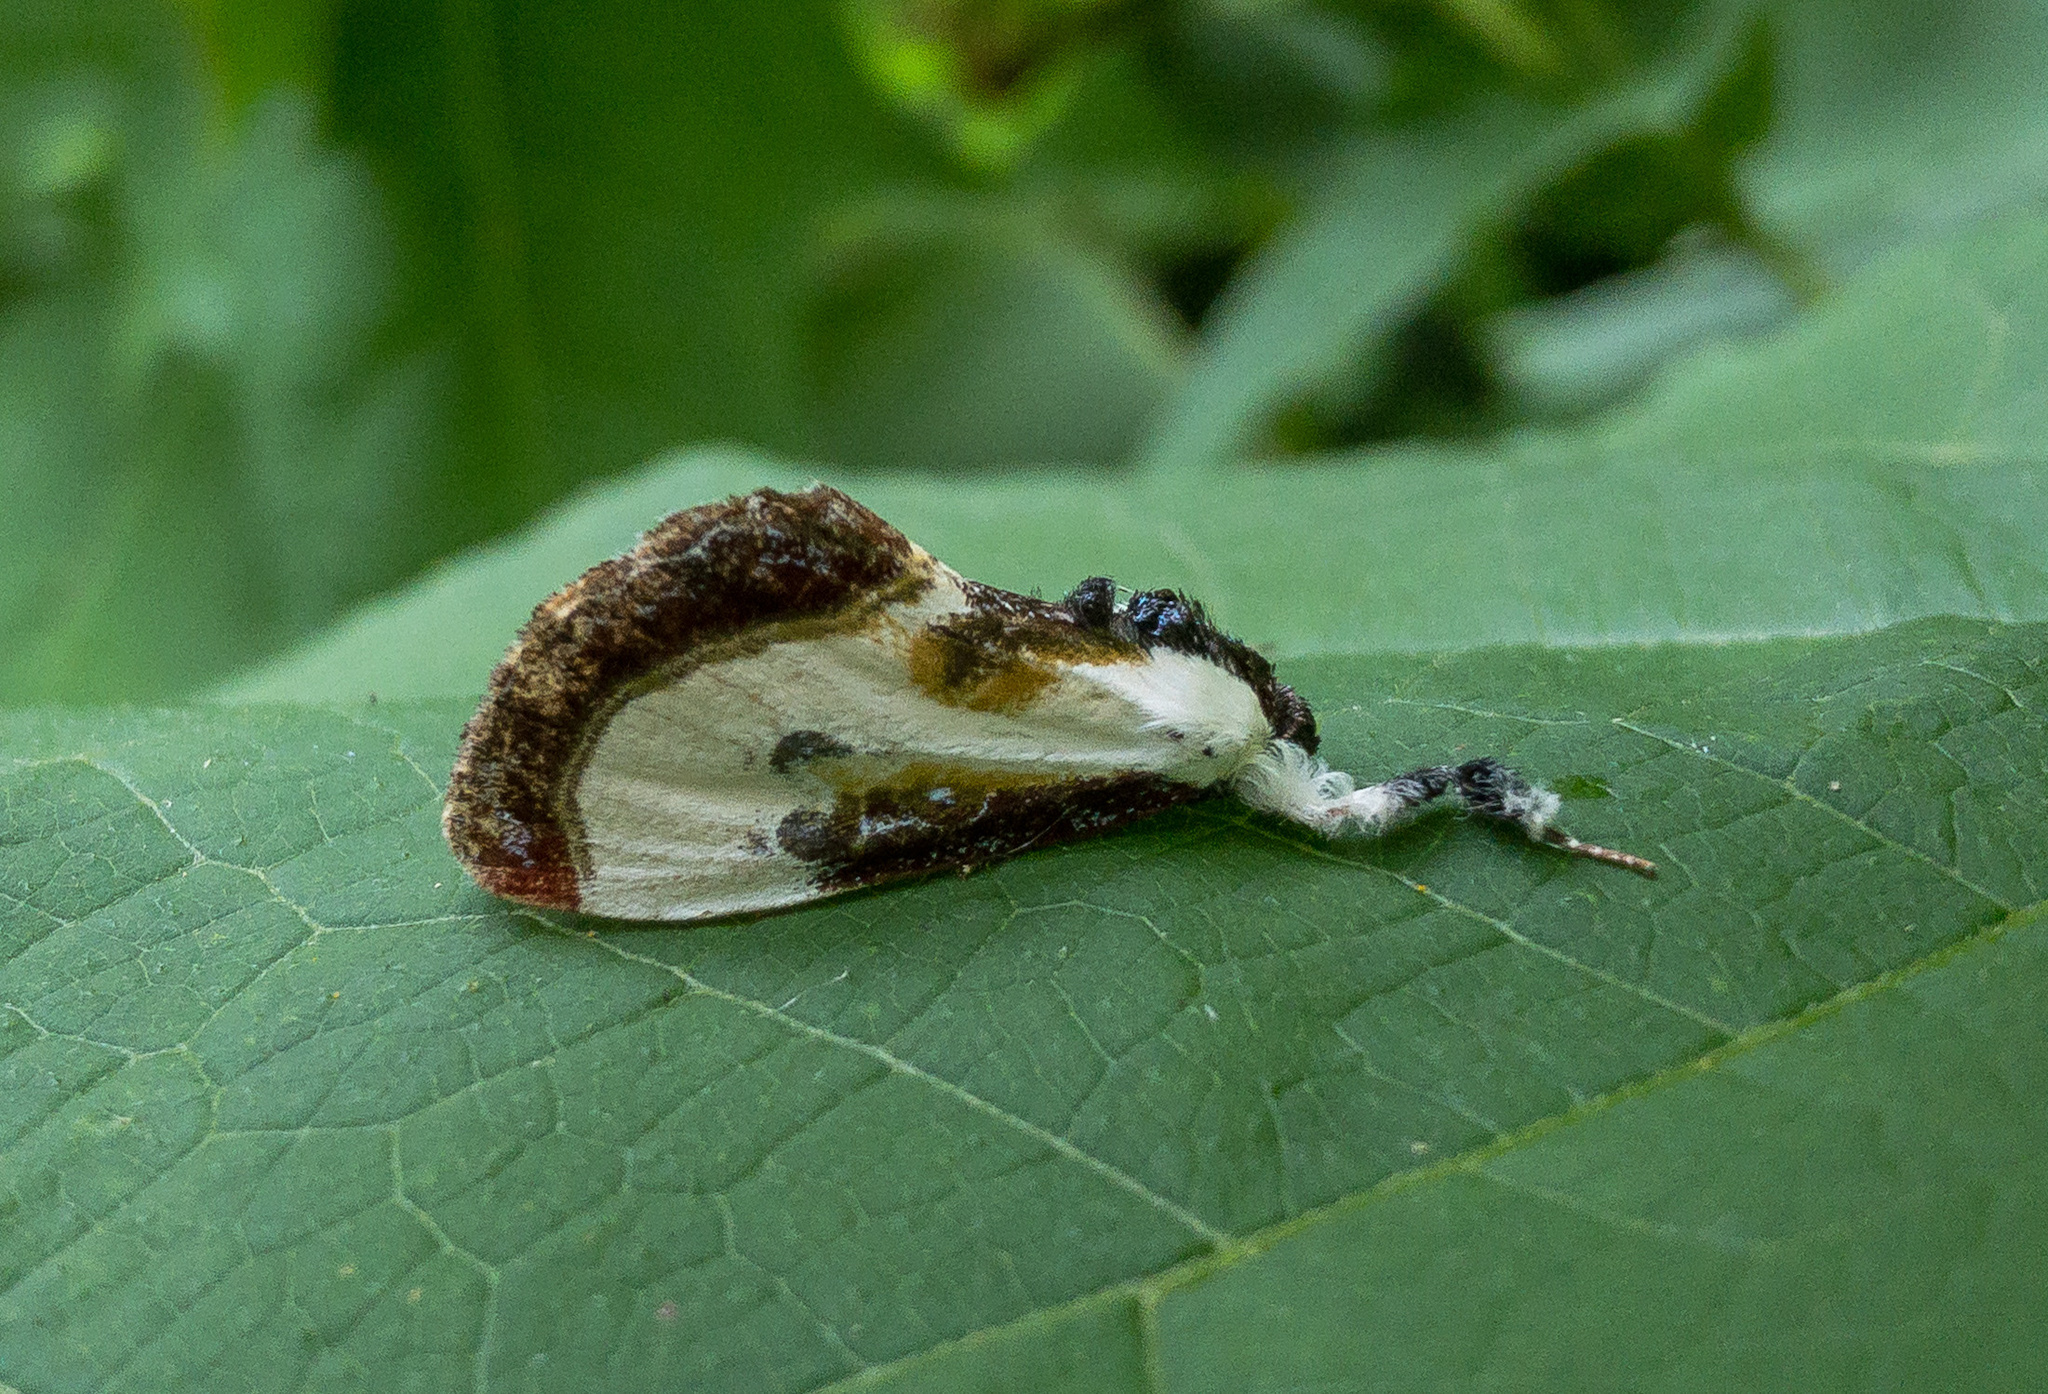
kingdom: Animalia
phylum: Arthropoda
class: Insecta
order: Lepidoptera
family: Noctuidae
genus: Eudryas
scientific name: Eudryas grata
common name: Beautiful wood-nymph
